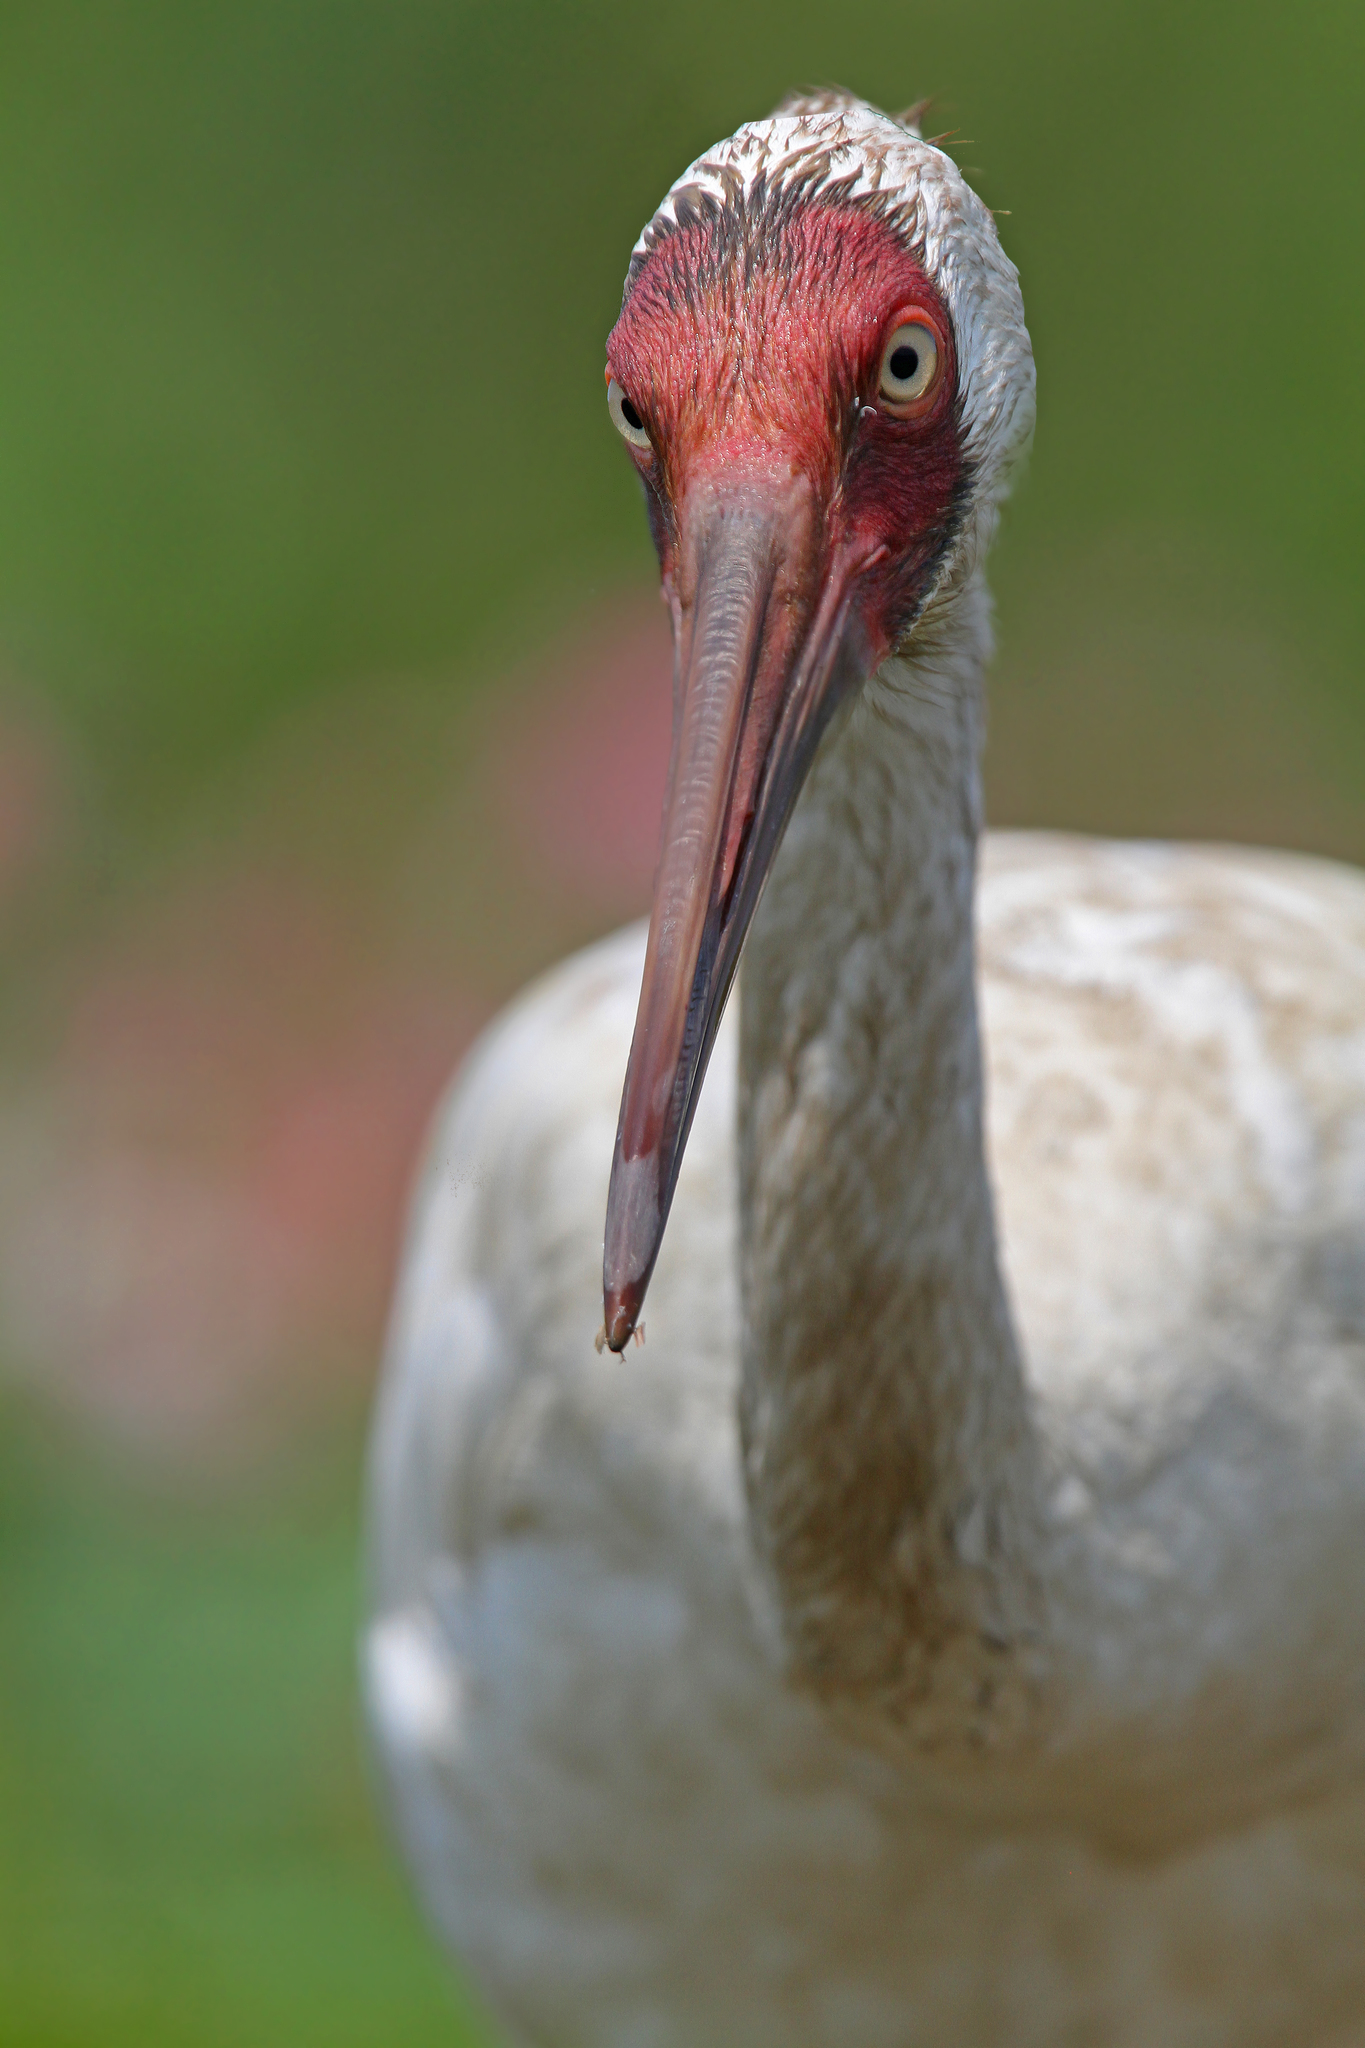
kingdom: Animalia
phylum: Chordata
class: Aves
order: Gruiformes
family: Gruidae
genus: Grus
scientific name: Grus leucogeranus
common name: Siberian crane
